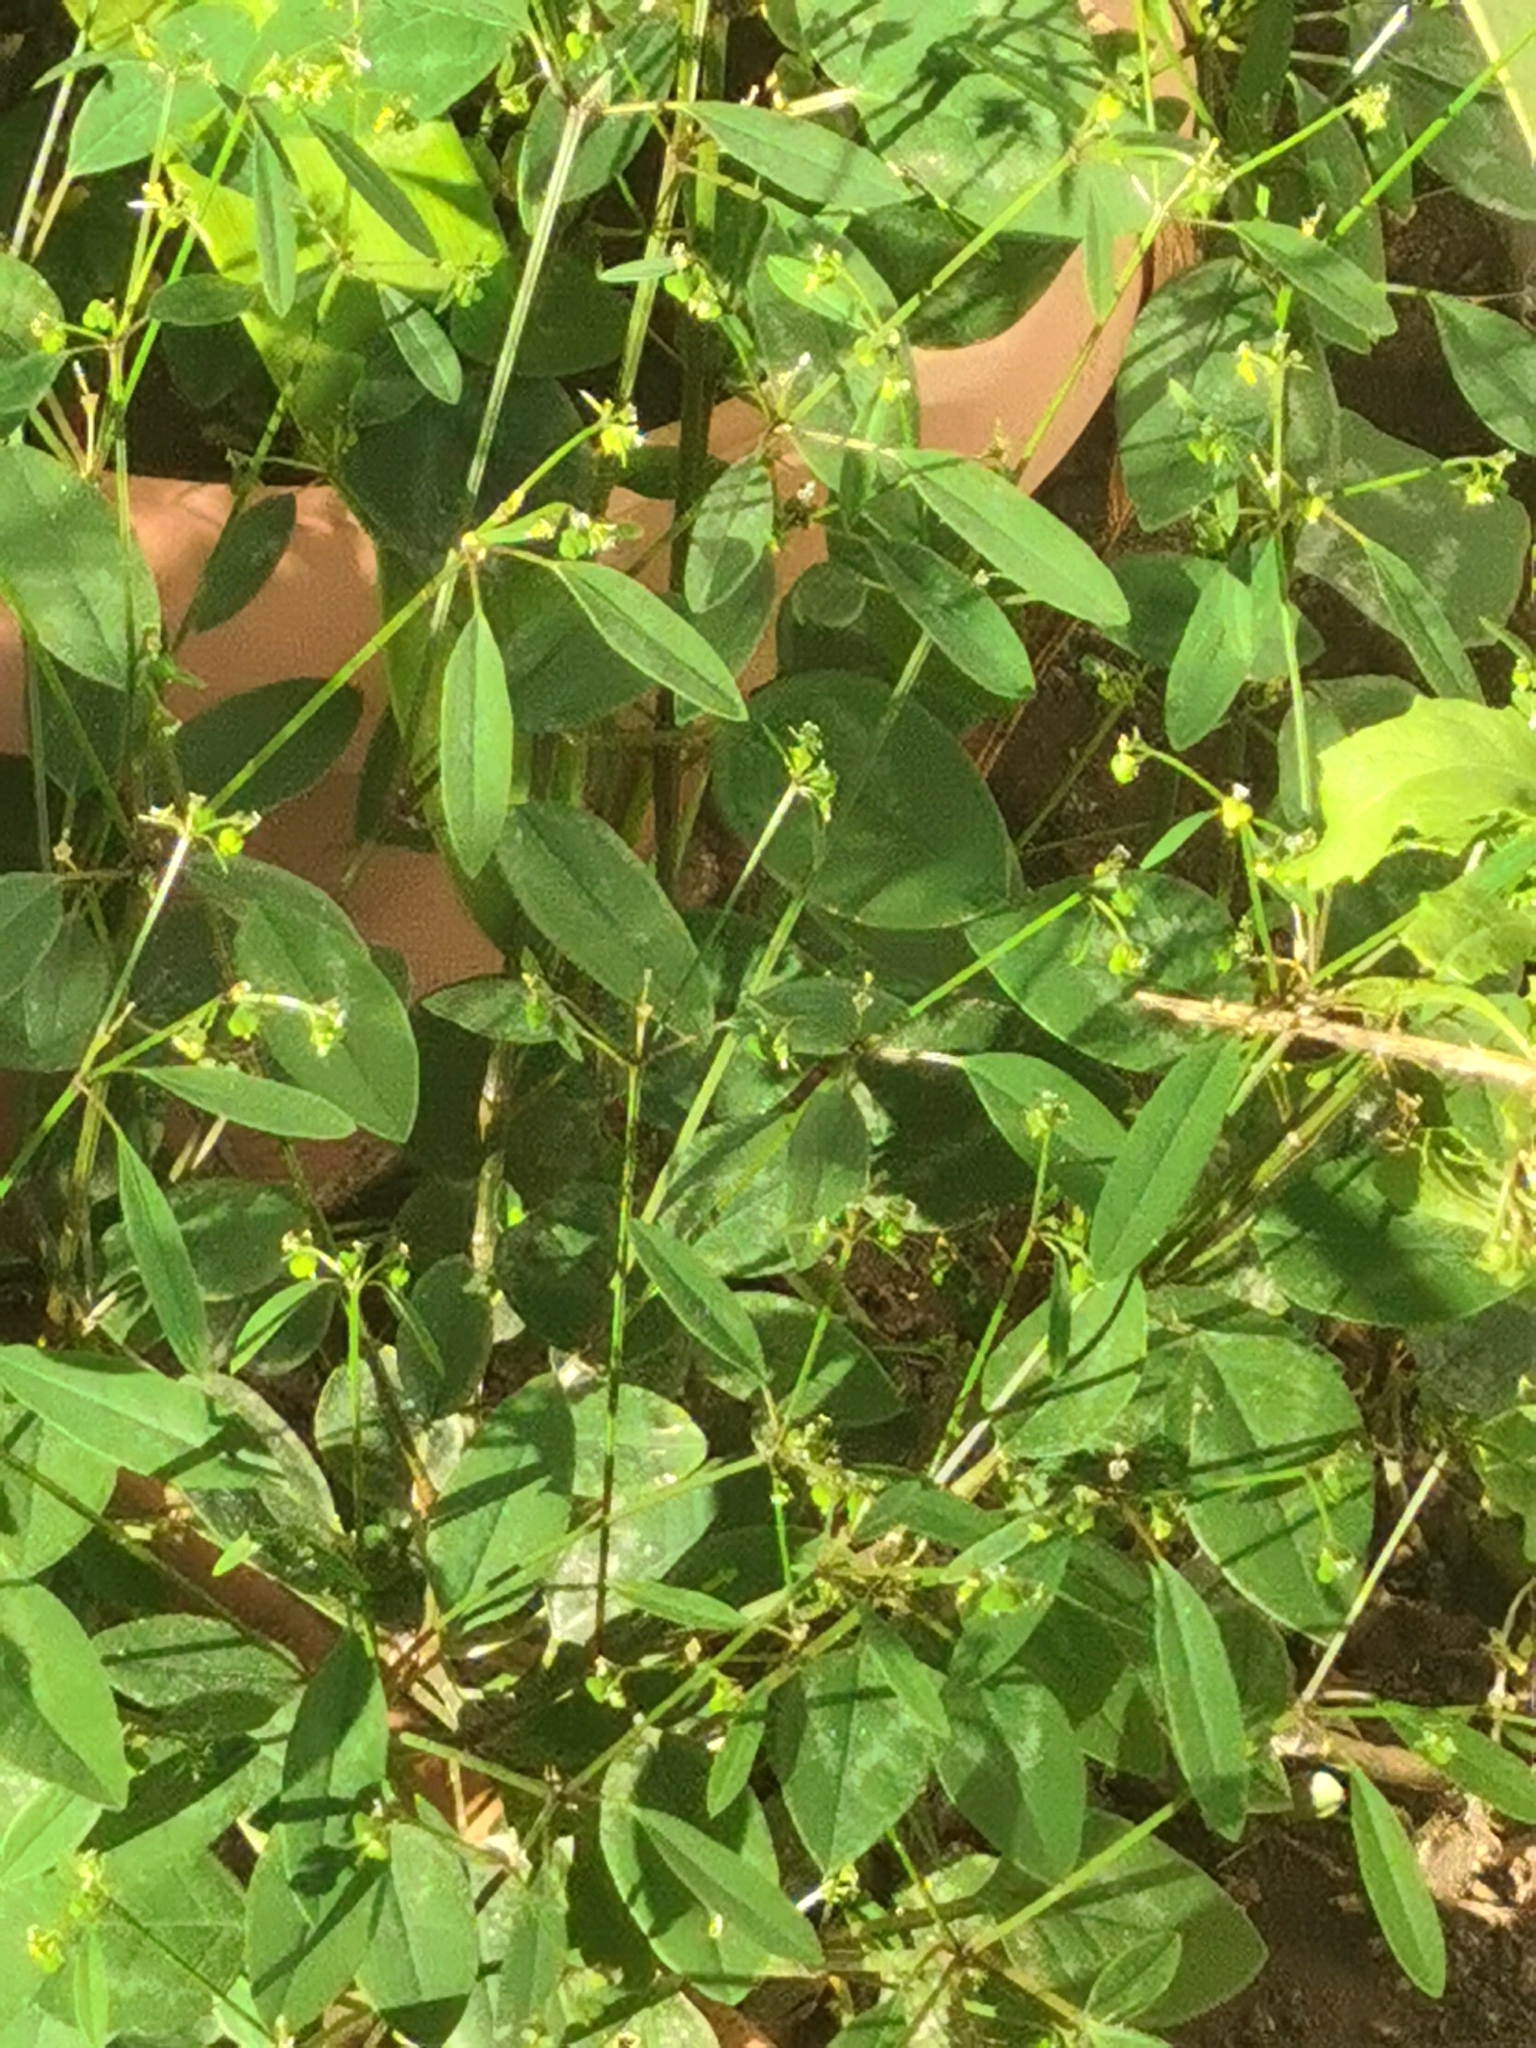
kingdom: Plantae
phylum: Tracheophyta
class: Magnoliopsida
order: Malpighiales
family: Euphorbiaceae
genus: Euphorbia
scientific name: Euphorbia graminea
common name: Grassleaf spurge
